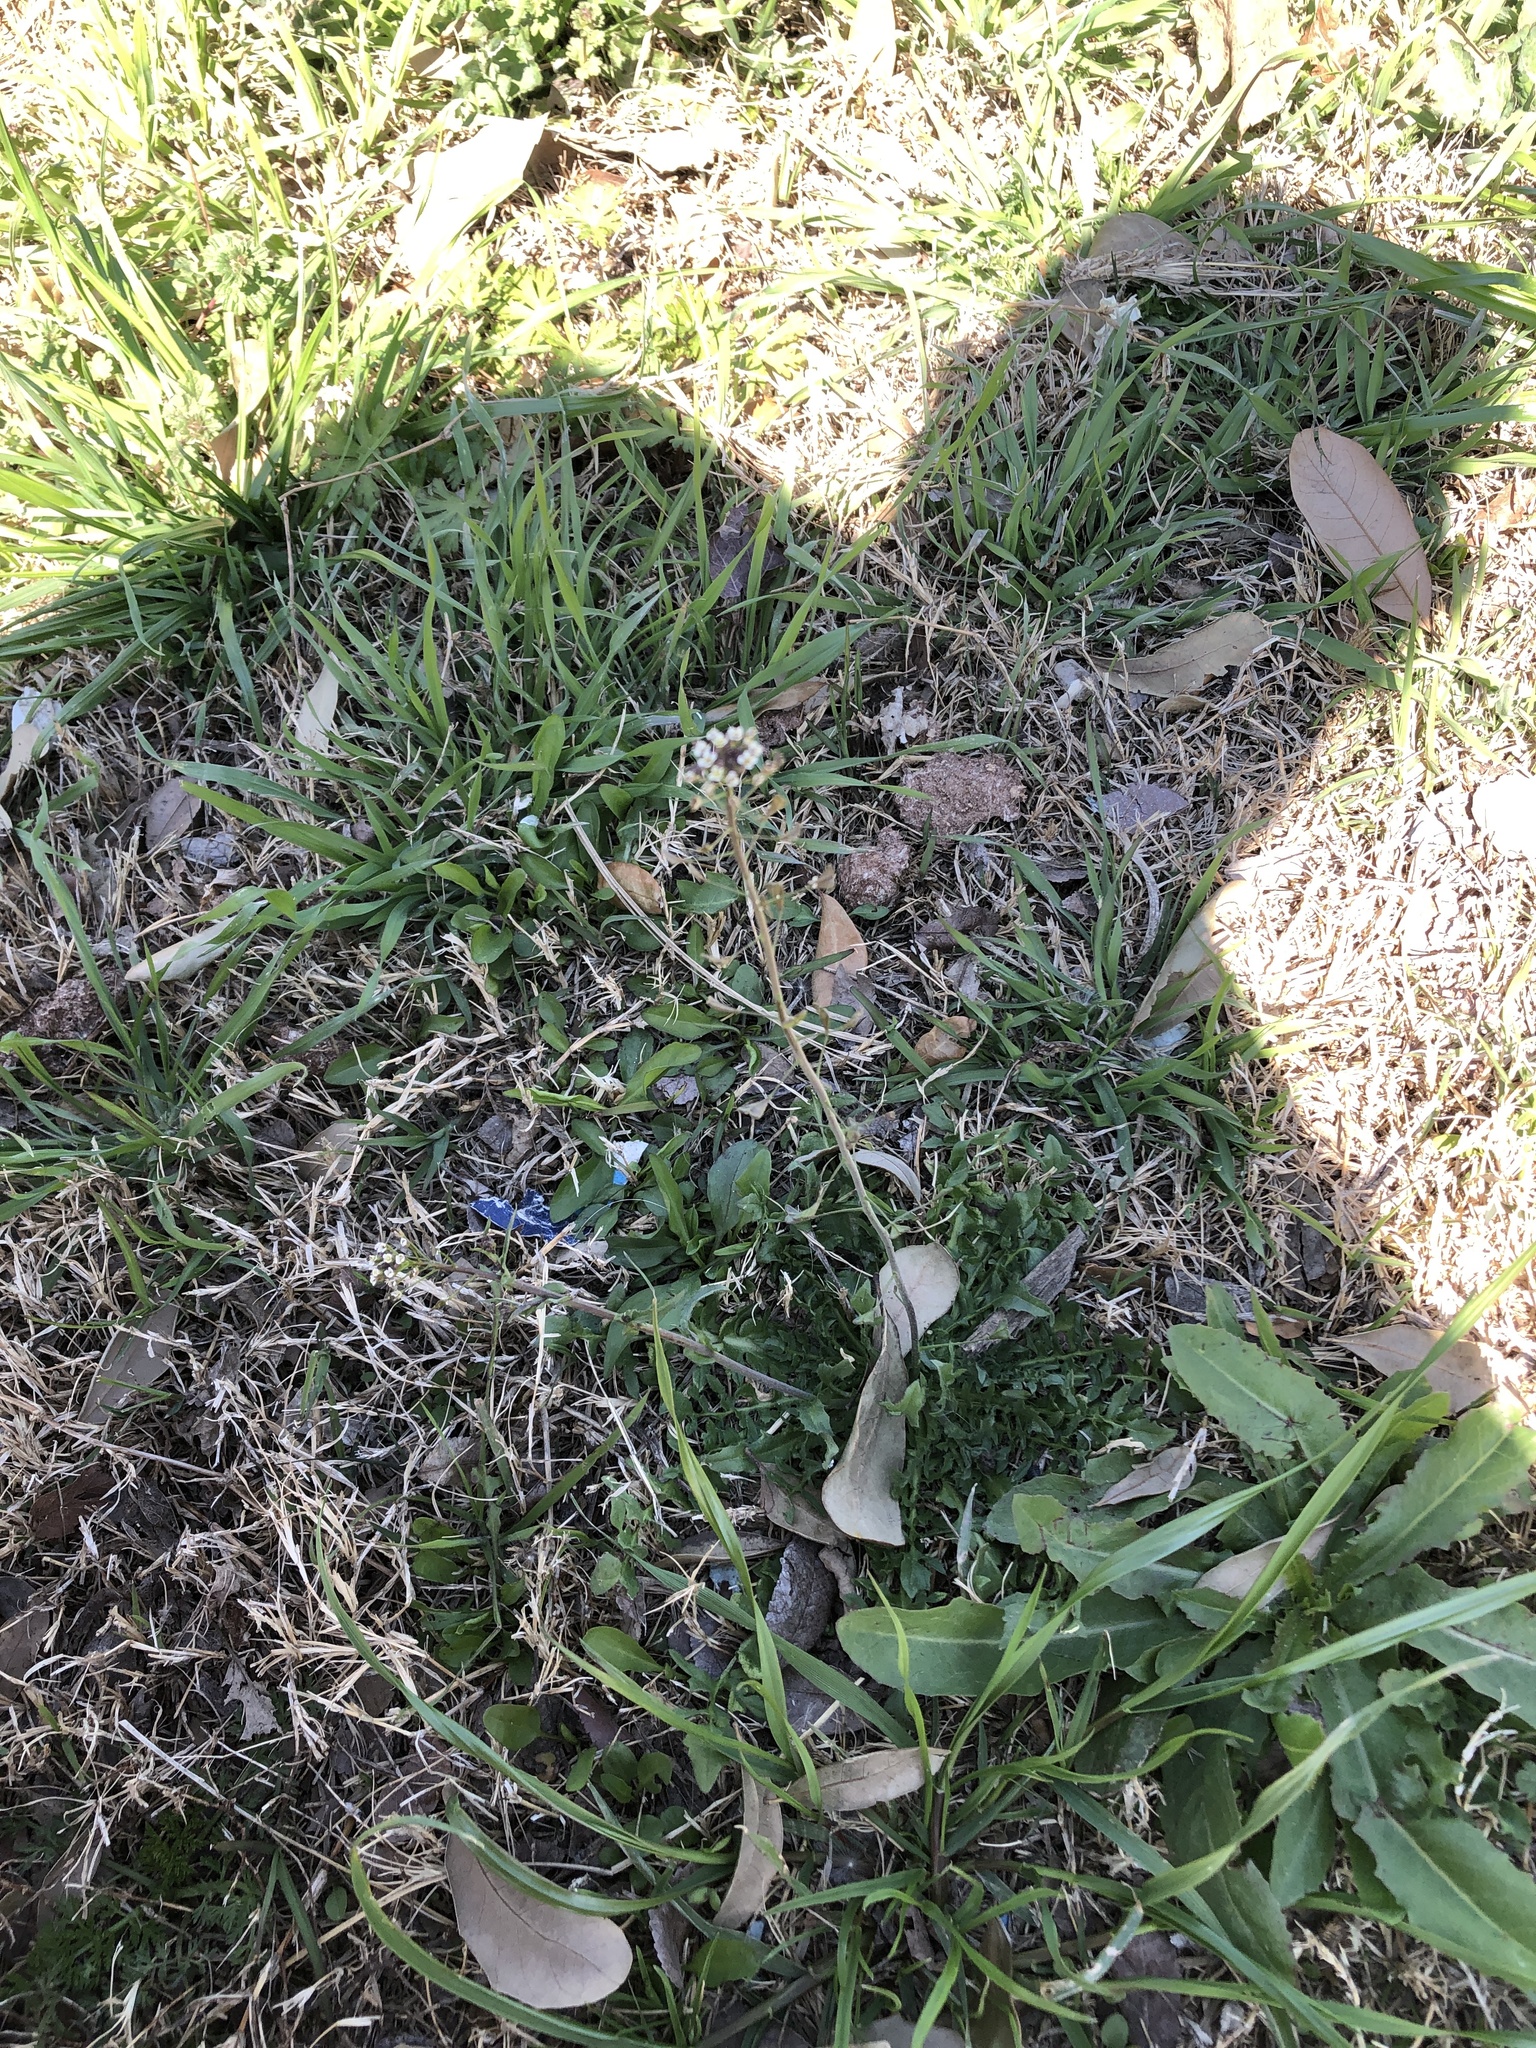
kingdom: Plantae
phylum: Tracheophyta
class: Magnoliopsida
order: Brassicales
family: Brassicaceae
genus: Capsella
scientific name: Capsella bursa-pastoris
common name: Shepherd's purse
